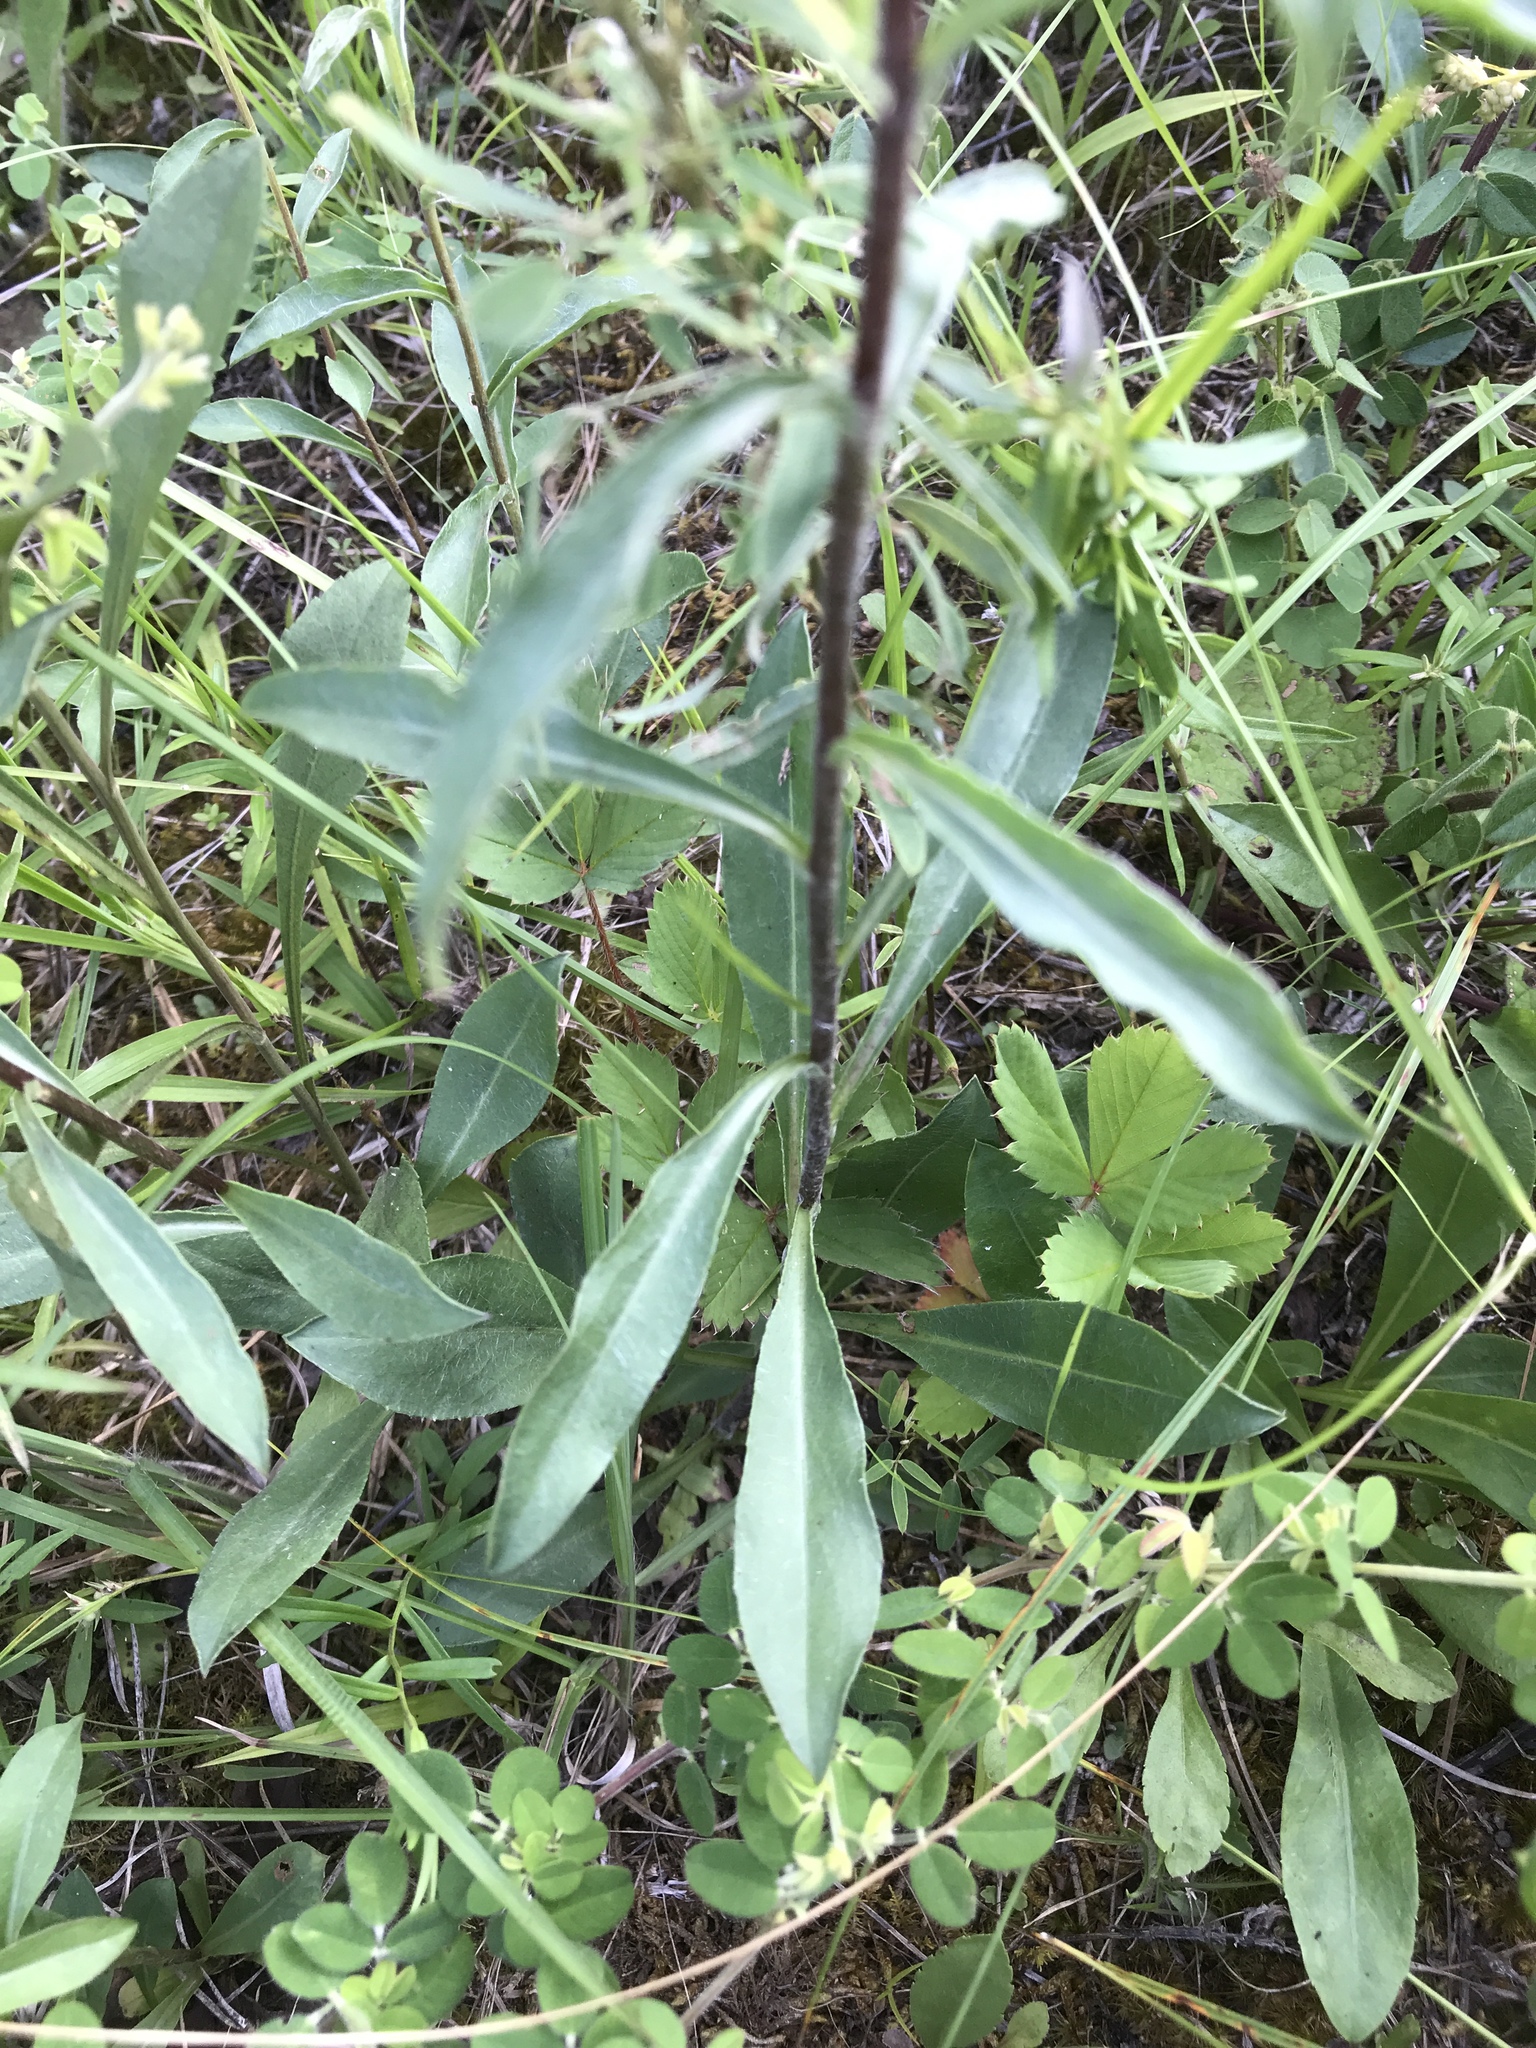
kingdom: Plantae
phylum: Tracheophyta
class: Magnoliopsida
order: Asterales
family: Asteraceae
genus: Chrysopsis
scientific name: Chrysopsis mariana
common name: Maryland golden-aster
